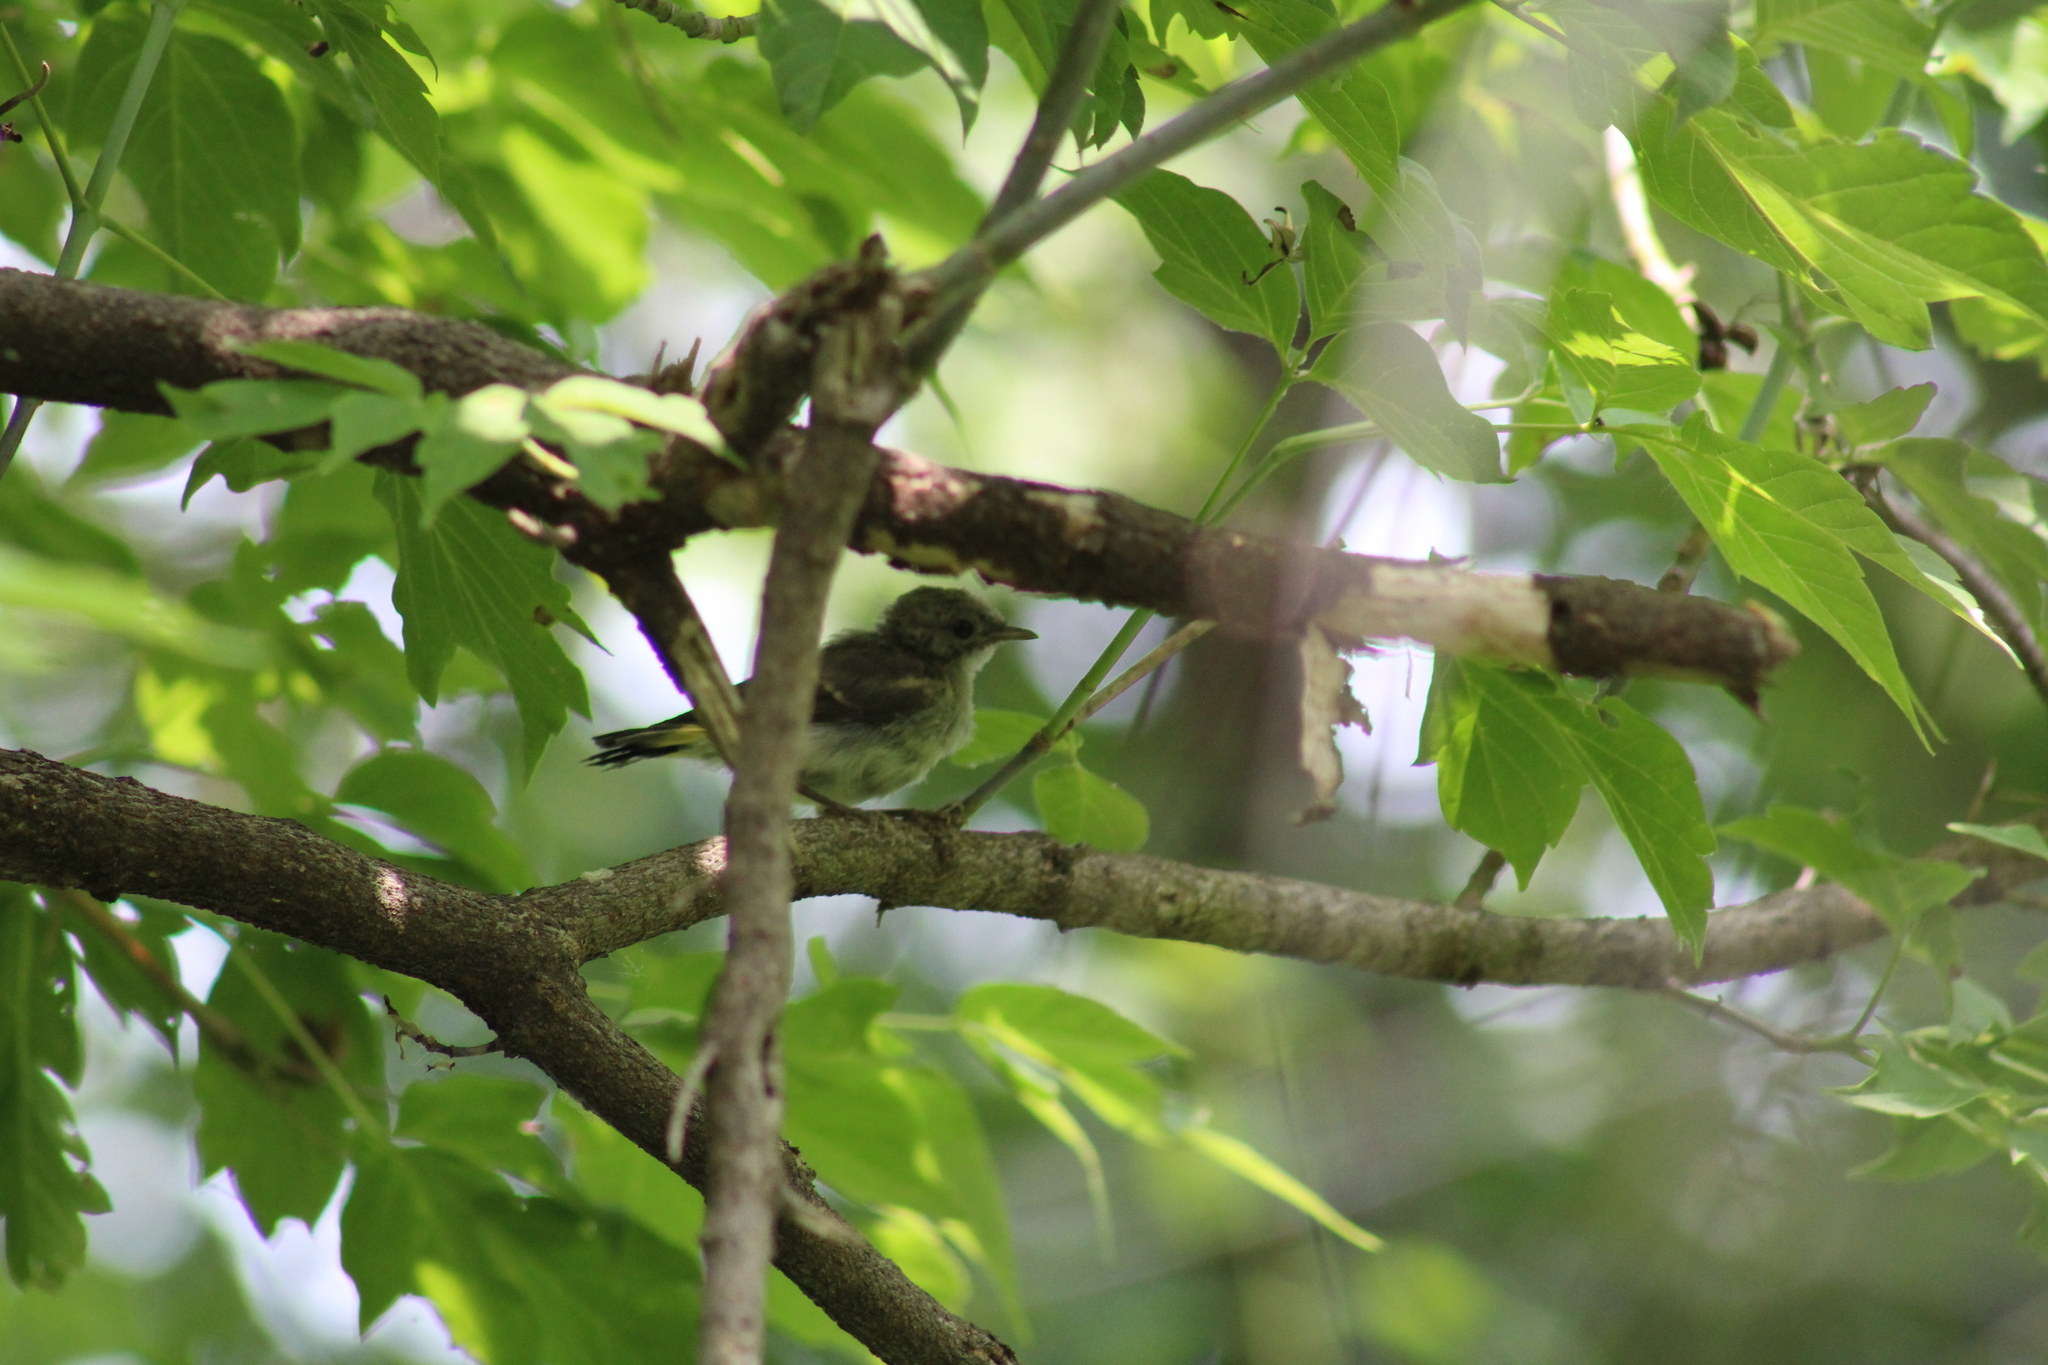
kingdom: Animalia
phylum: Chordata
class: Aves
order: Passeriformes
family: Parulidae
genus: Setophaga
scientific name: Setophaga ruticilla
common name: American redstart
